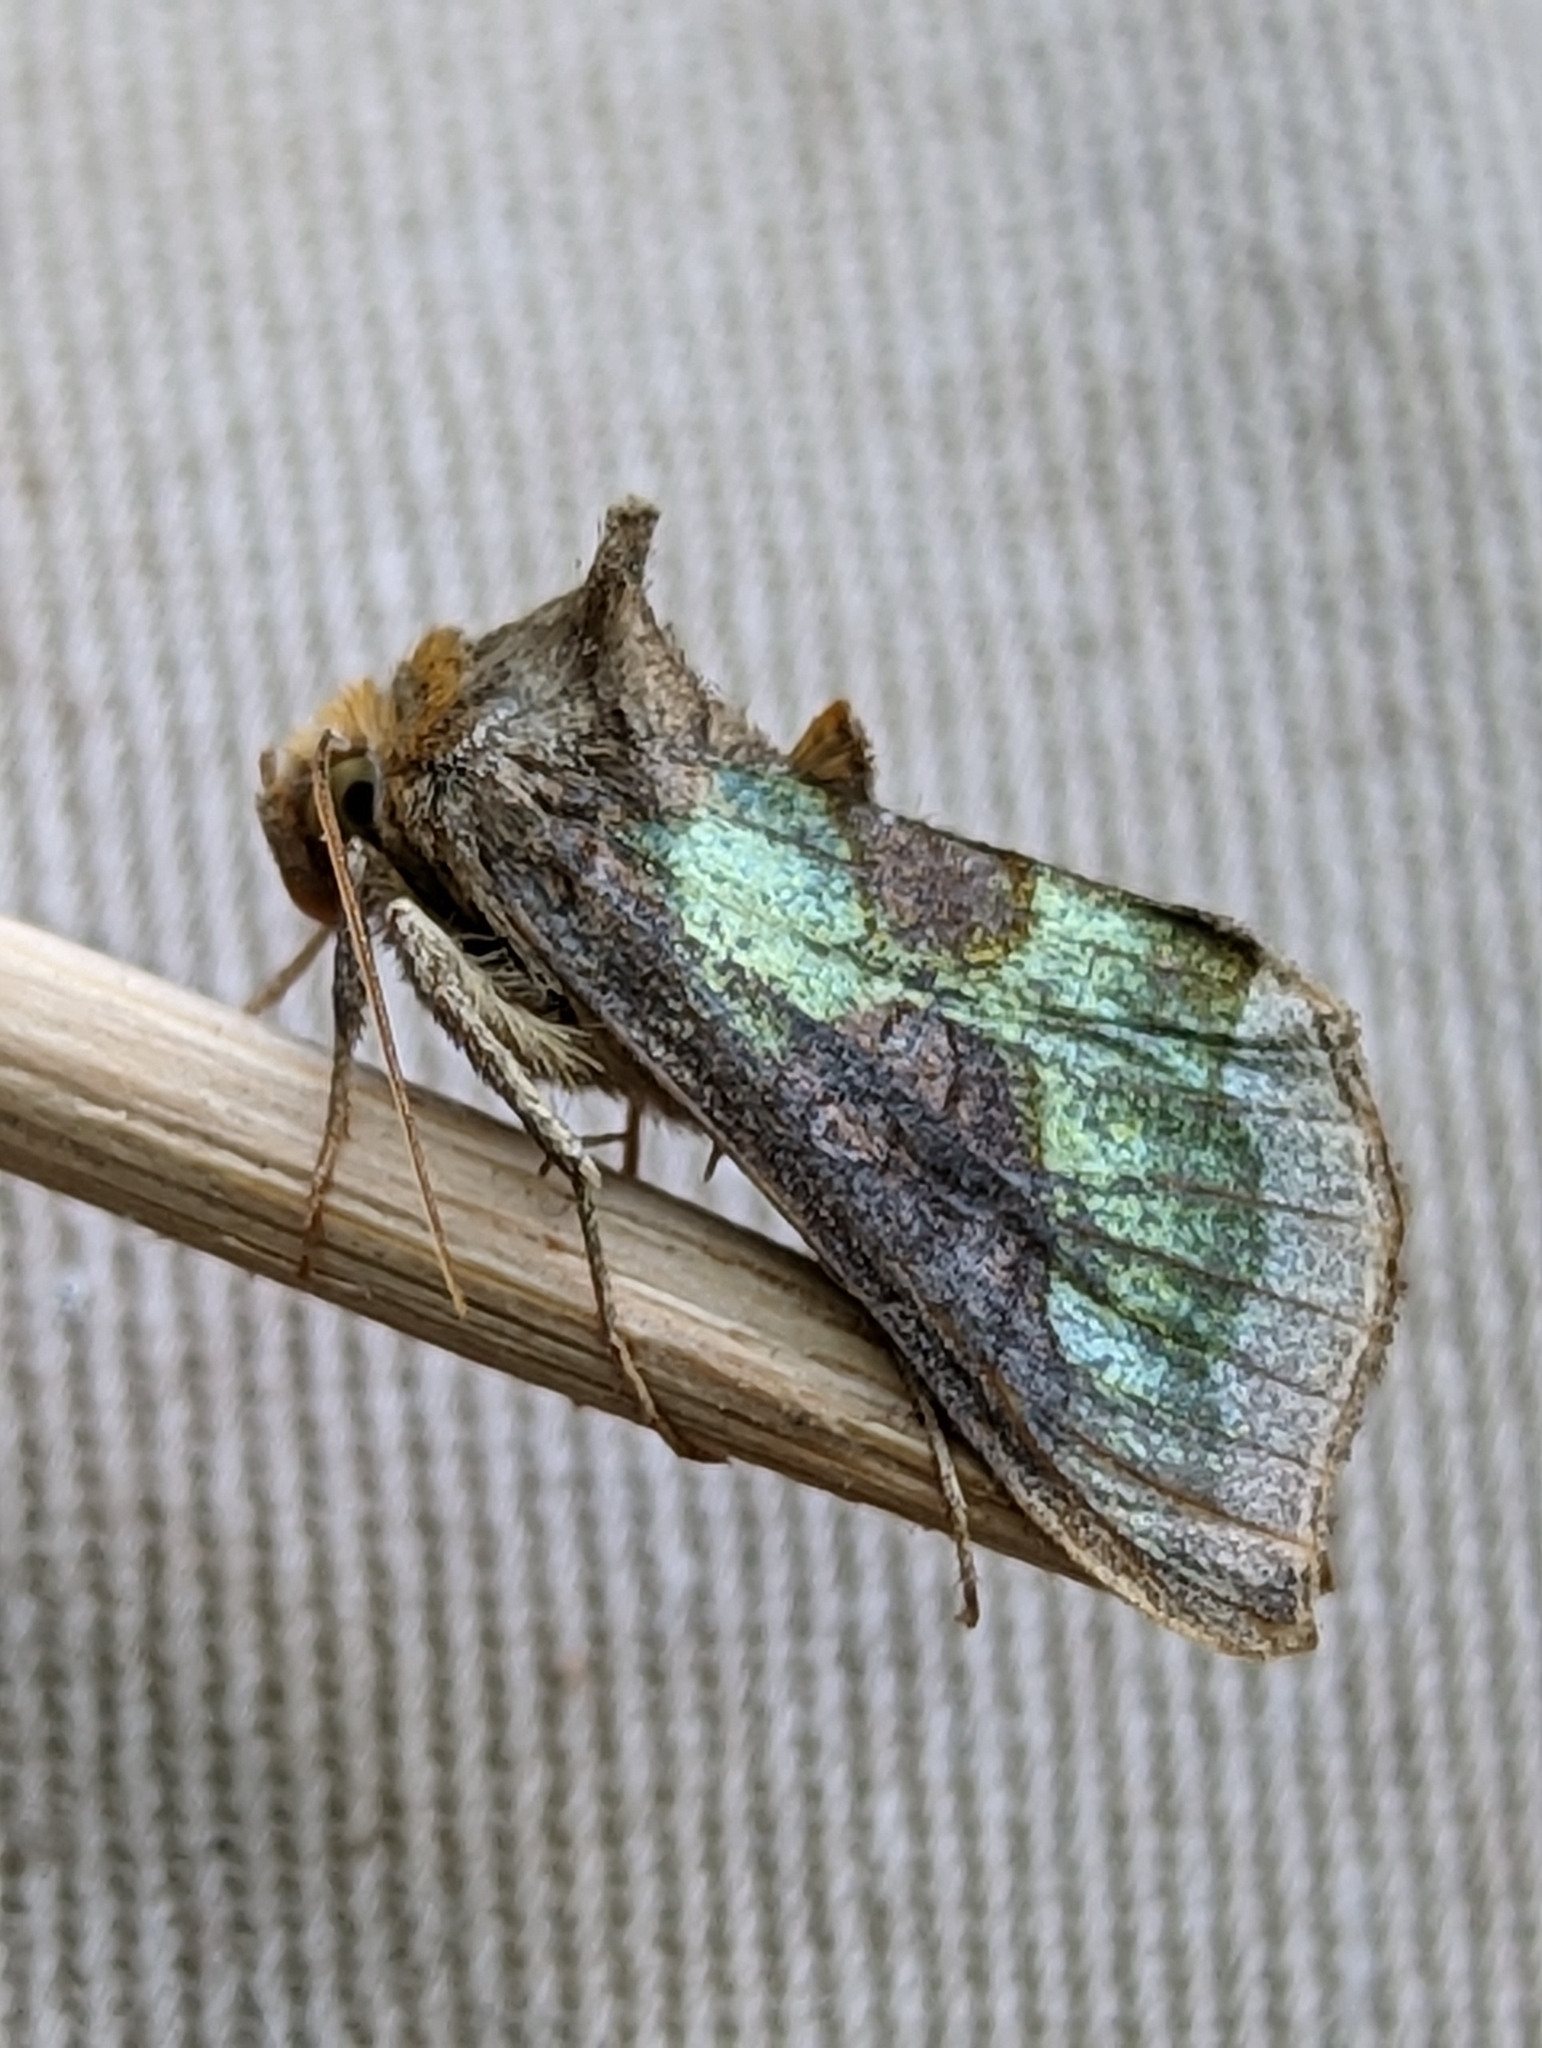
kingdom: Animalia
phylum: Arthropoda
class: Insecta
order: Lepidoptera
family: Noctuidae
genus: Diachrysia
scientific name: Diachrysia chrysitis
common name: Burnished brass
